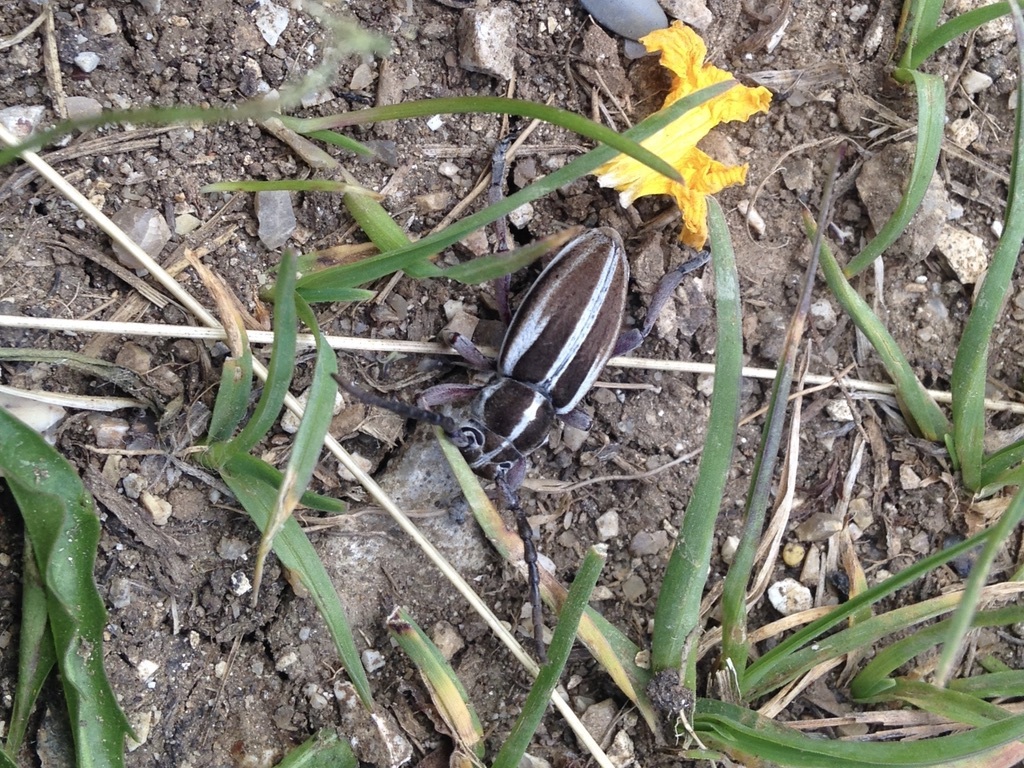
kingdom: Animalia
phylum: Arthropoda
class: Insecta
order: Coleoptera
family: Cerambycidae
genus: Dorcadion
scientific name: Dorcadion arenarium
